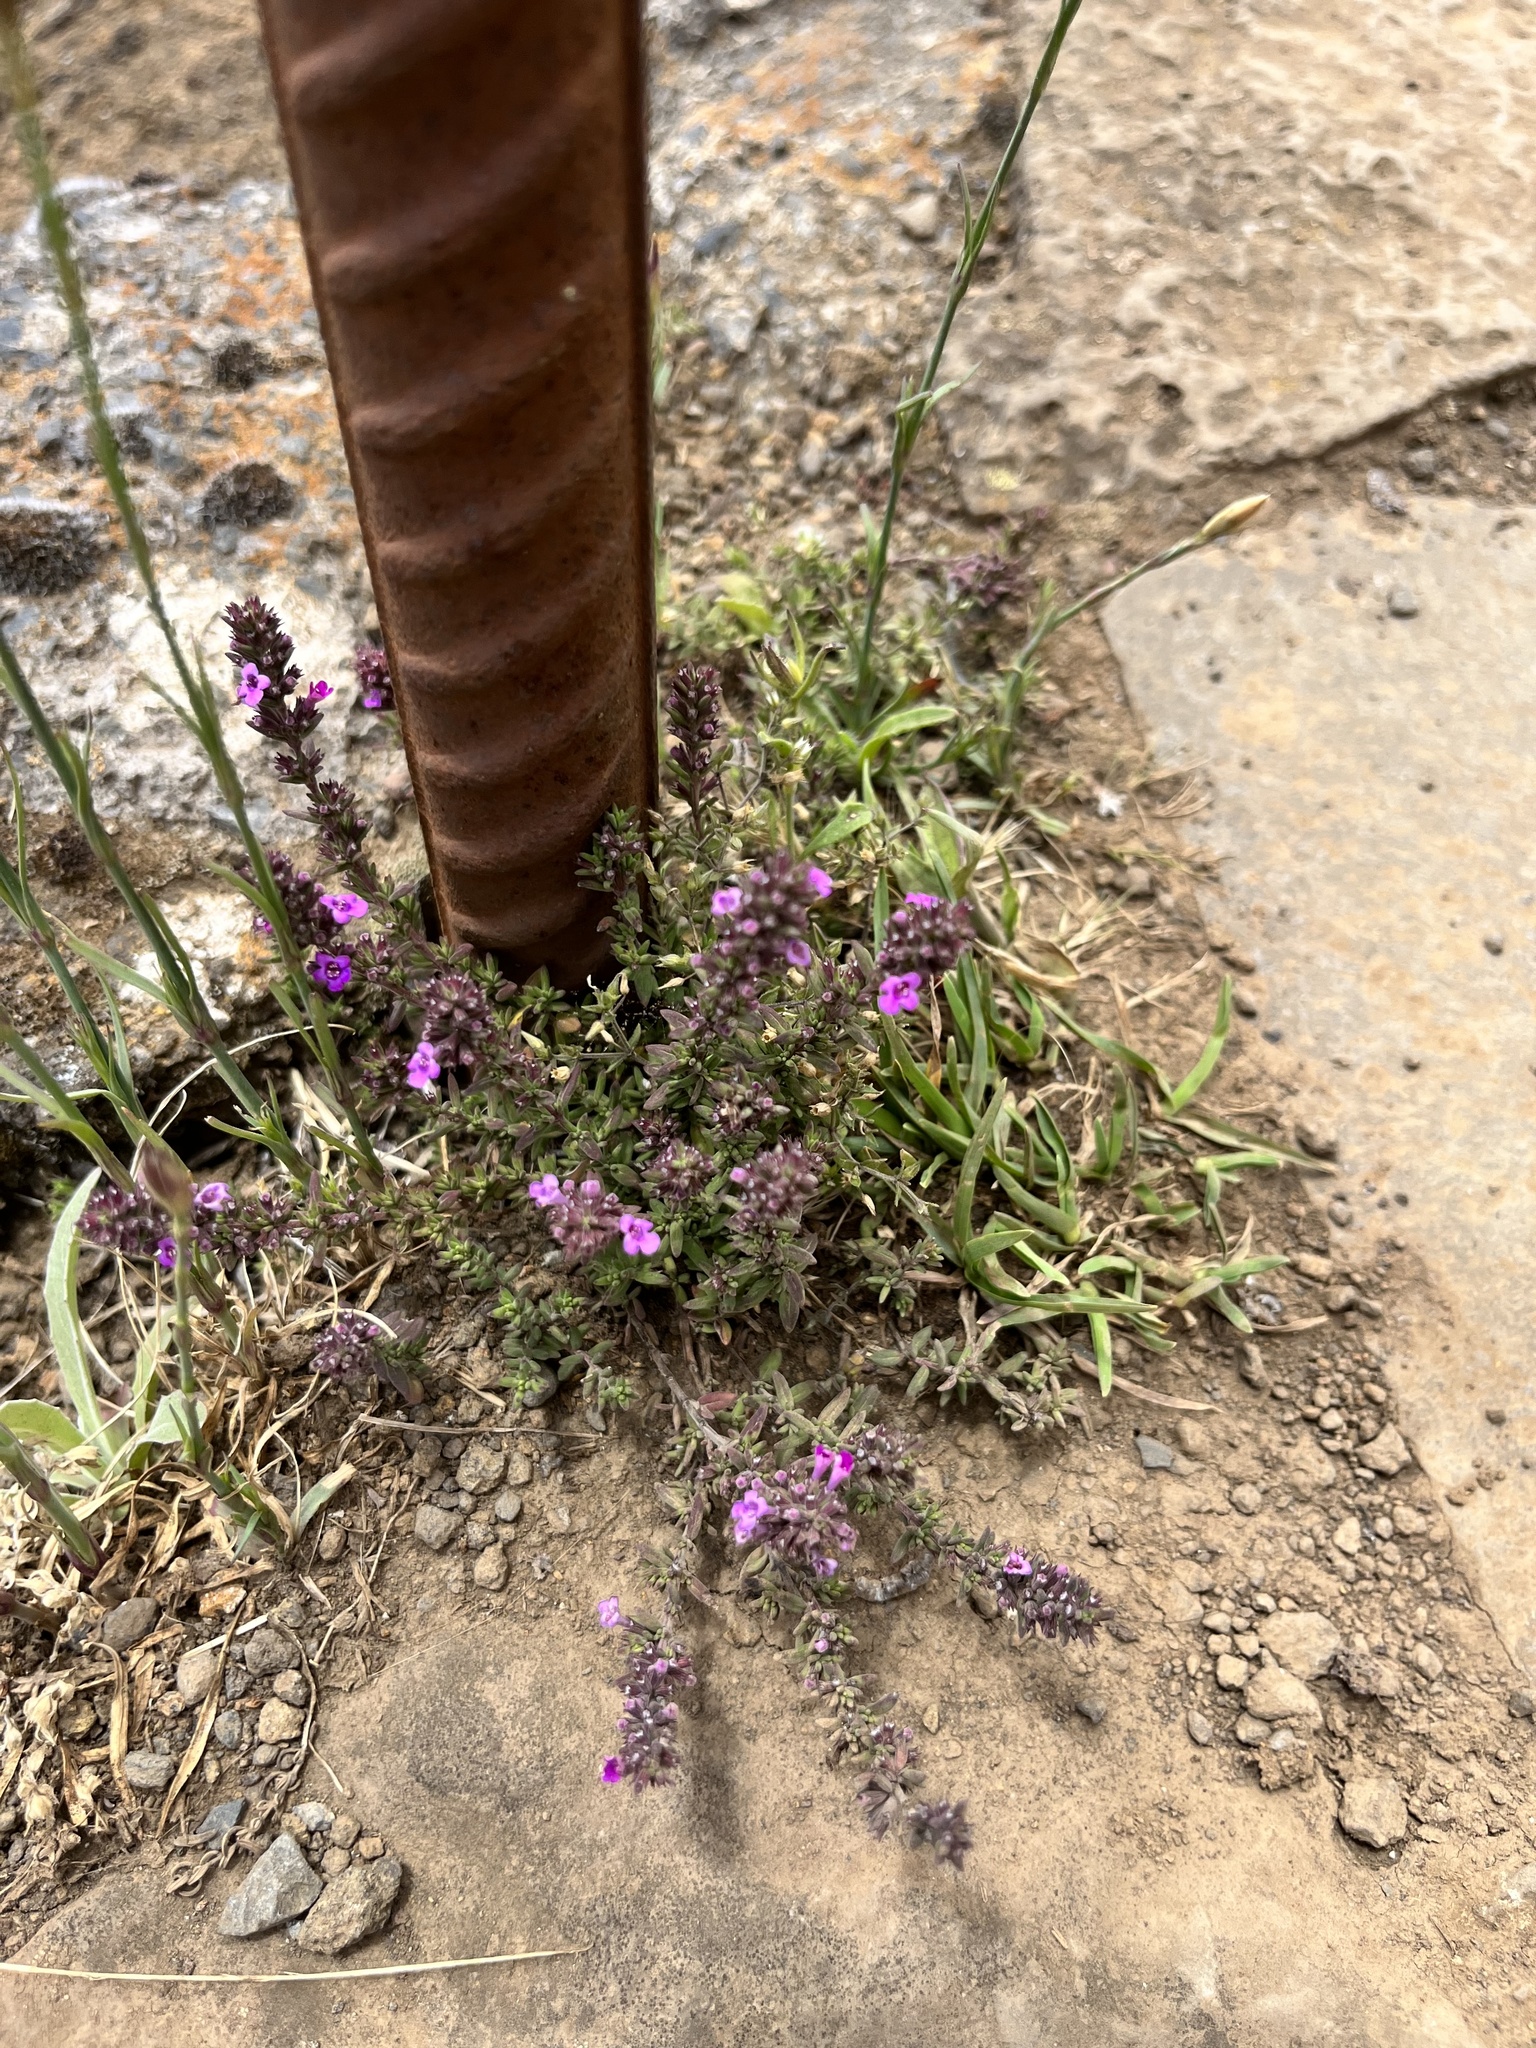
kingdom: Plantae
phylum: Tracheophyta
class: Magnoliopsida
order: Lamiales
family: Lamiaceae
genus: Micromeria
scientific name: Micromeria maderensis
